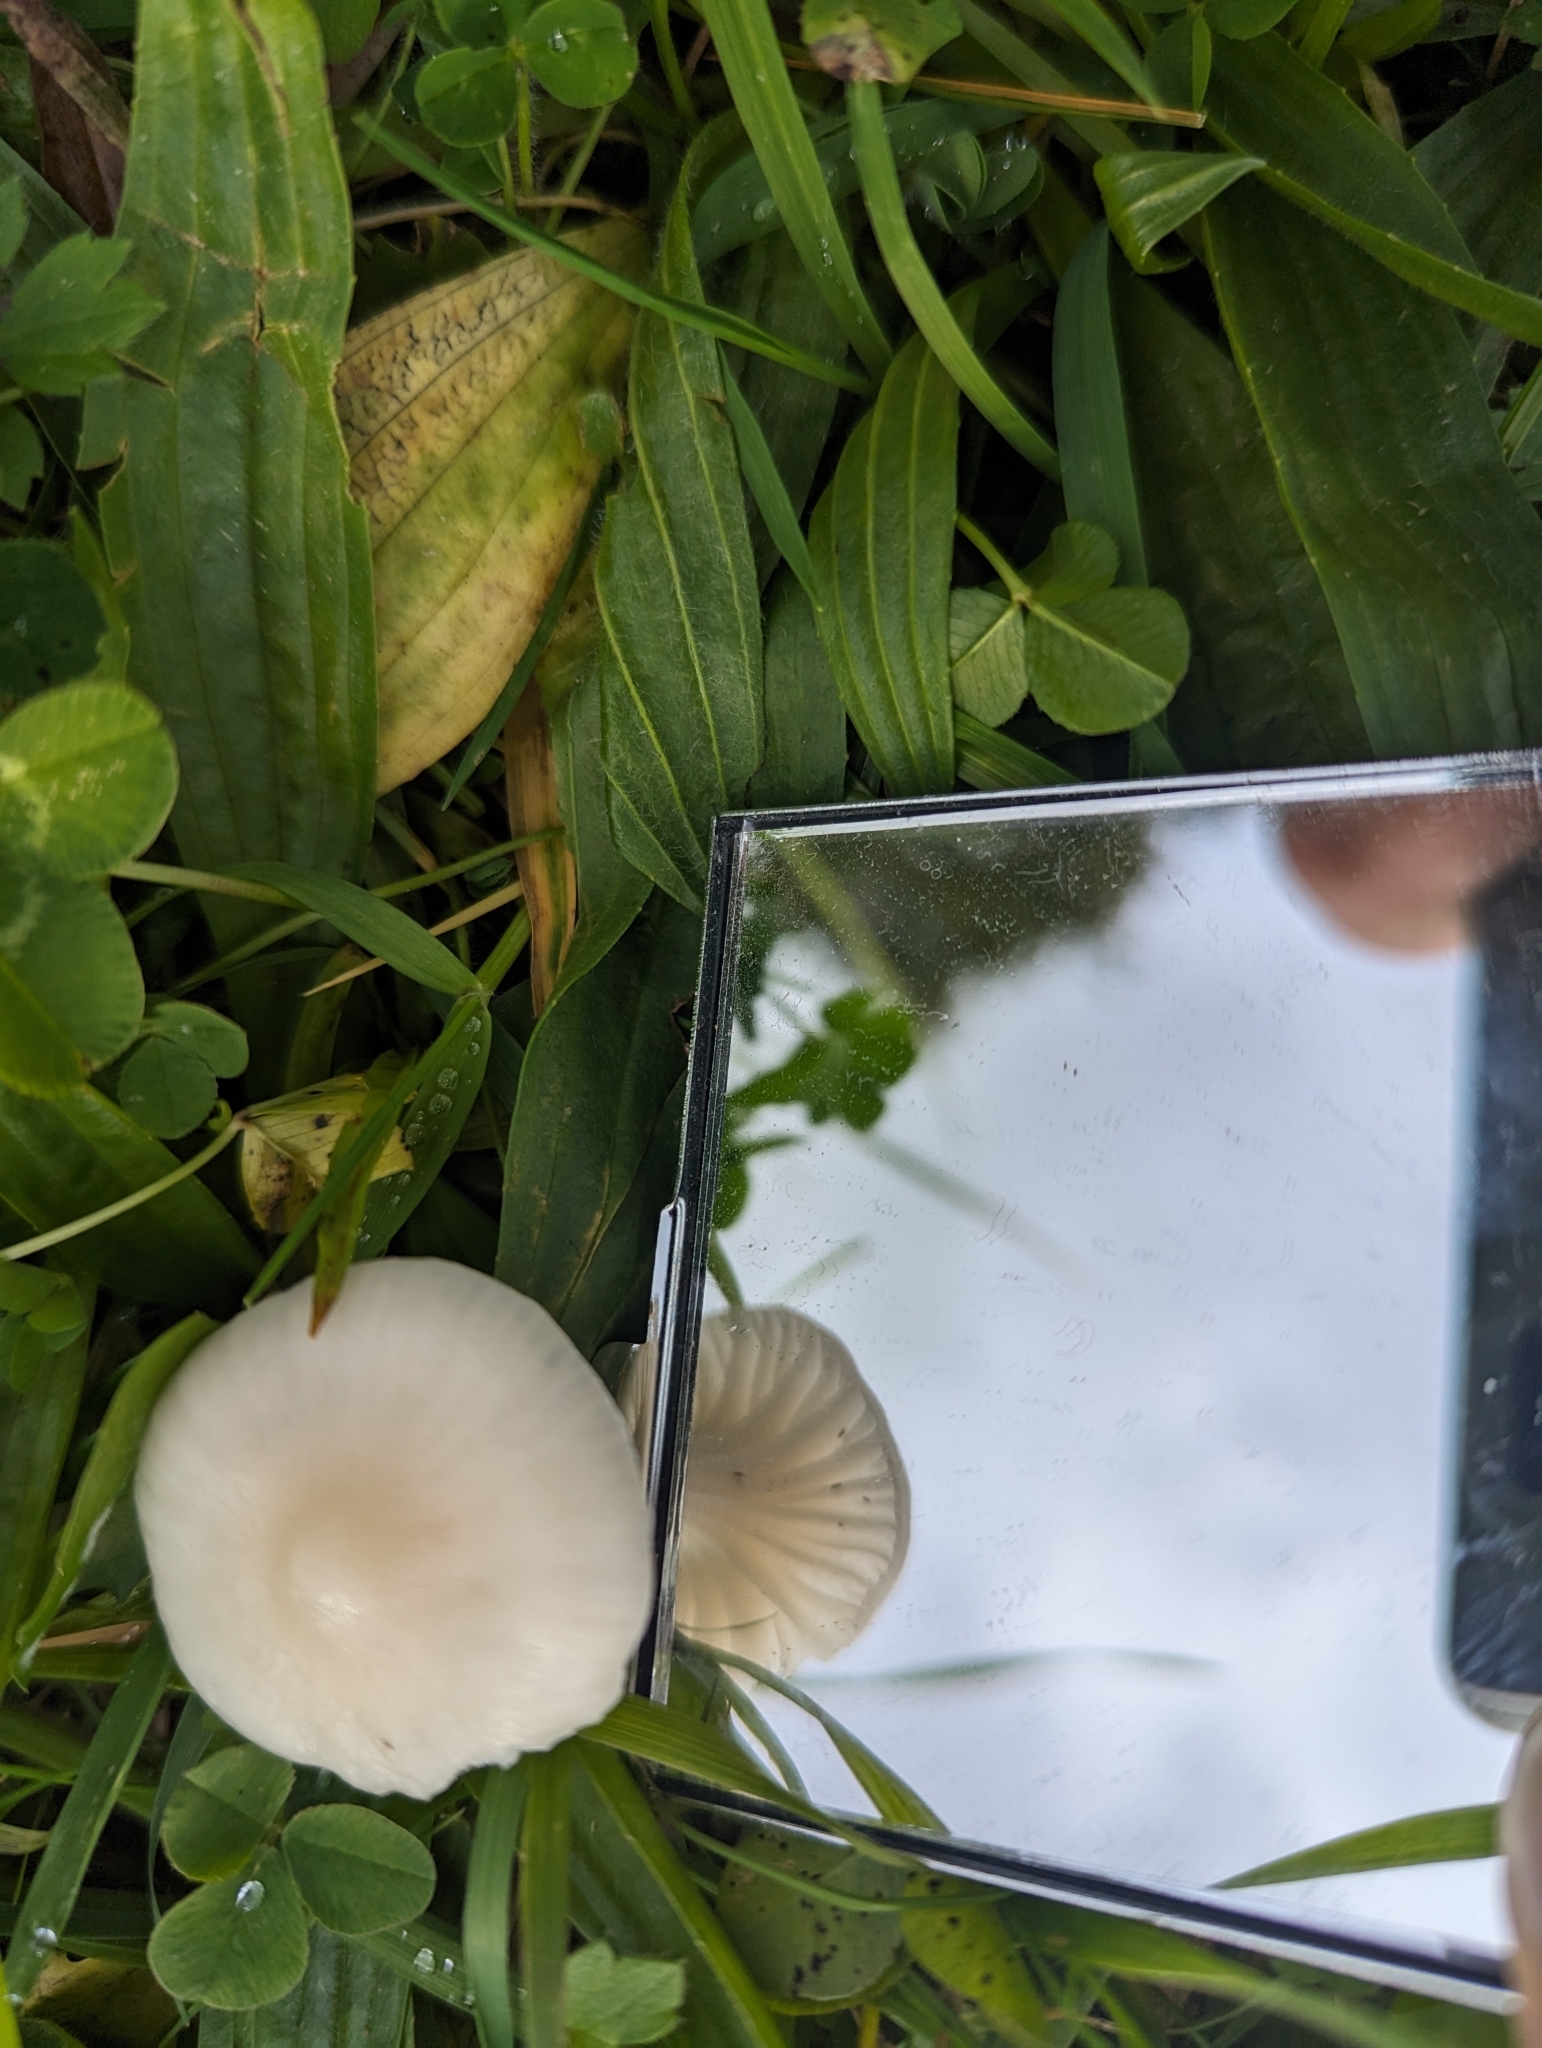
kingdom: Fungi
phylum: Basidiomycota
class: Agaricomycetes
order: Agaricales
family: Hygrophoraceae
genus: Cuphophyllus
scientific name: Cuphophyllus virgineus
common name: Snowy waxcap
